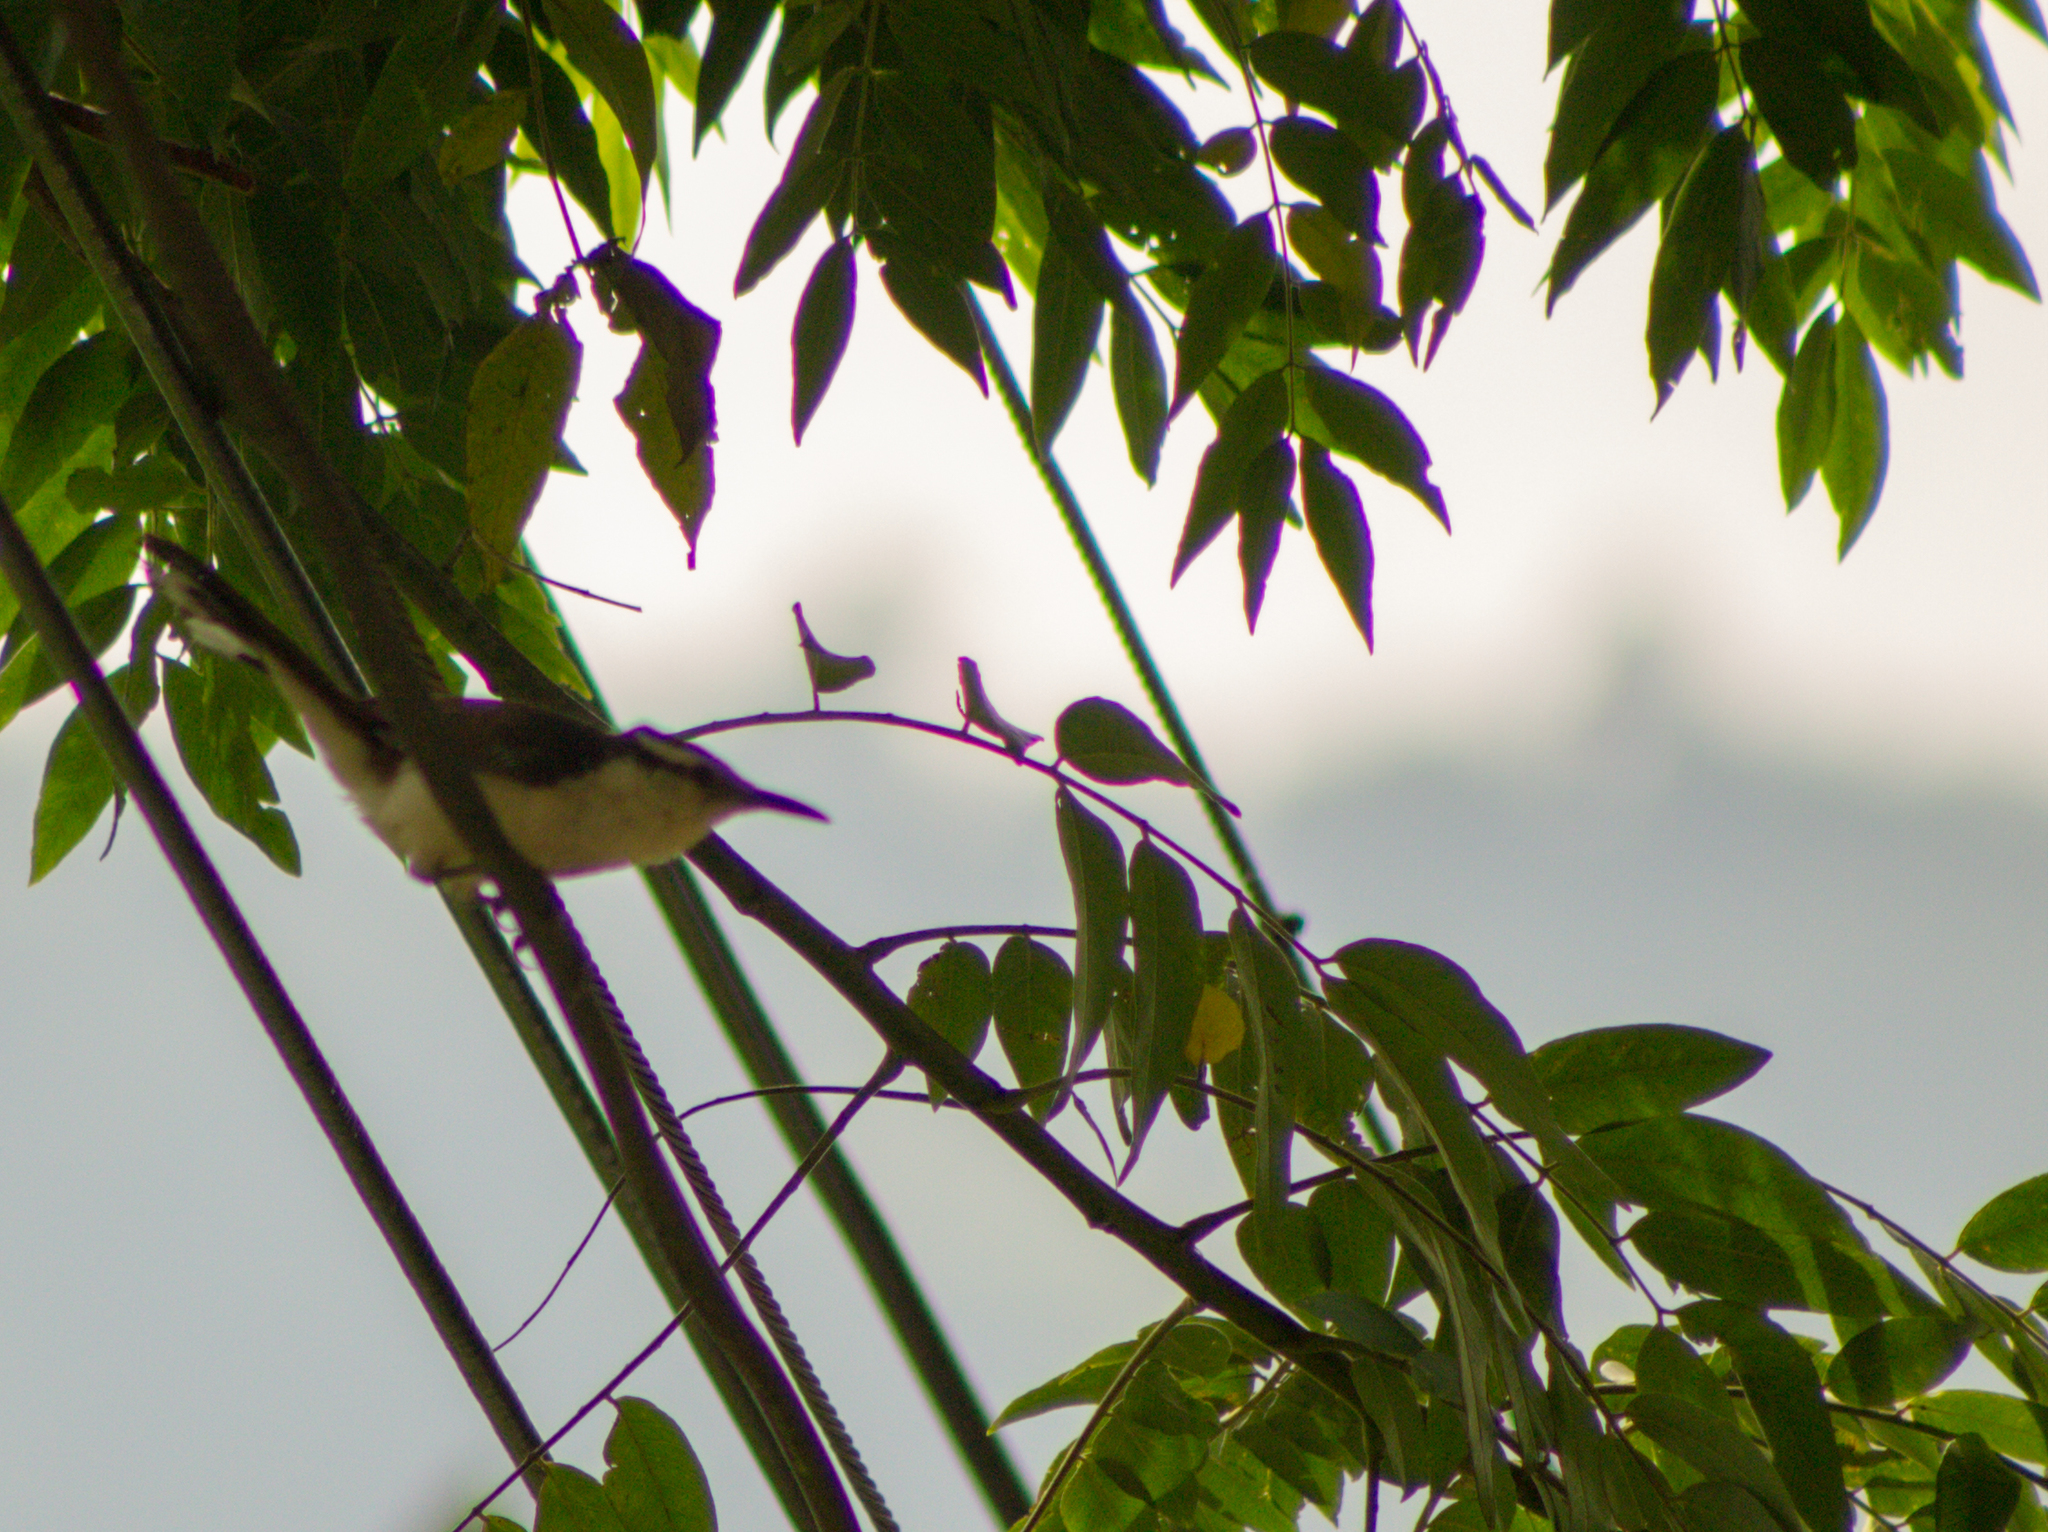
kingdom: Animalia
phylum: Chordata
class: Aves
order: Passeriformes
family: Troglodytidae
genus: Campylorhynchus
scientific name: Campylorhynchus griseus
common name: Bicolored wren
